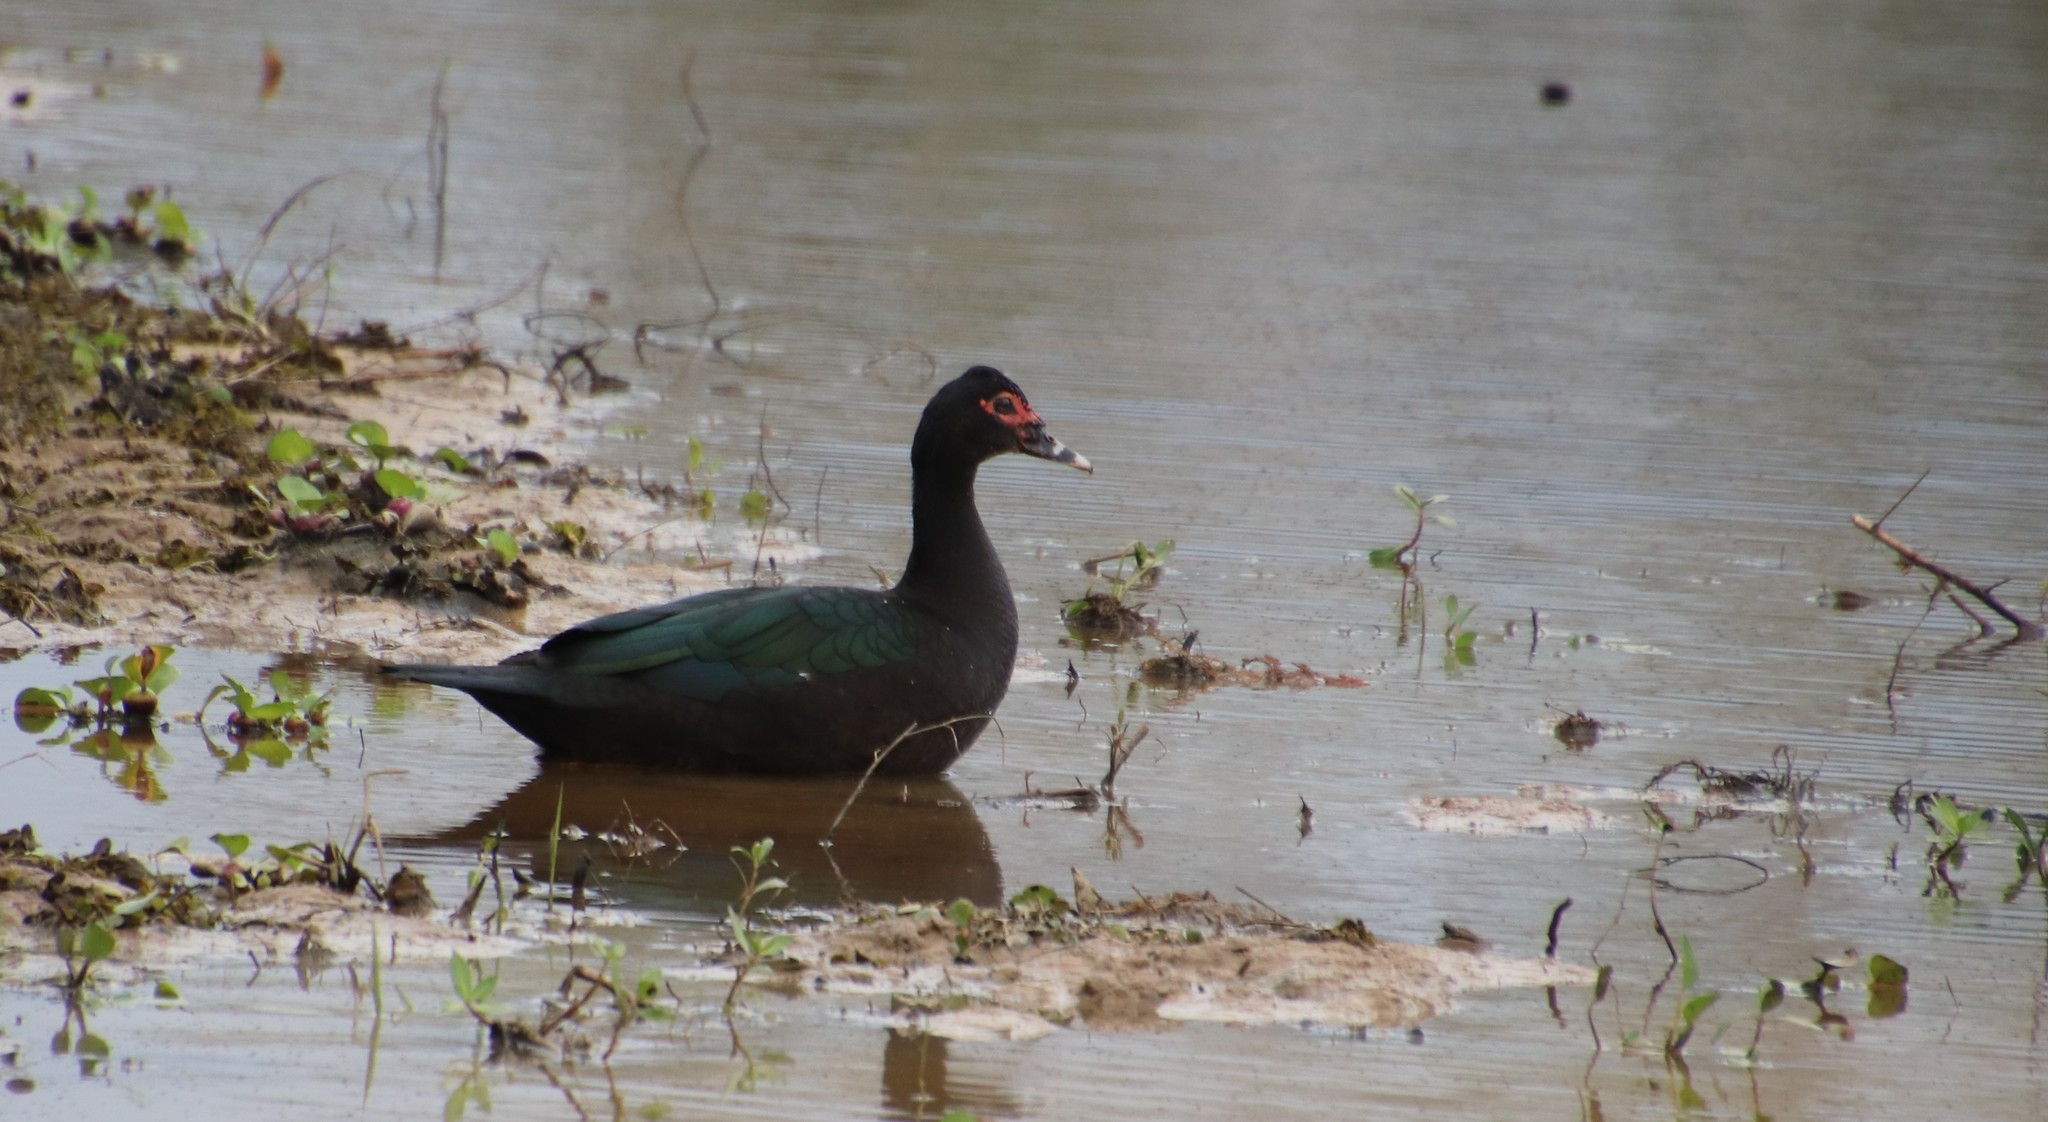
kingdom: Animalia
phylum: Chordata
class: Aves
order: Anseriformes
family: Anatidae
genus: Cairina
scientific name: Cairina moschata
